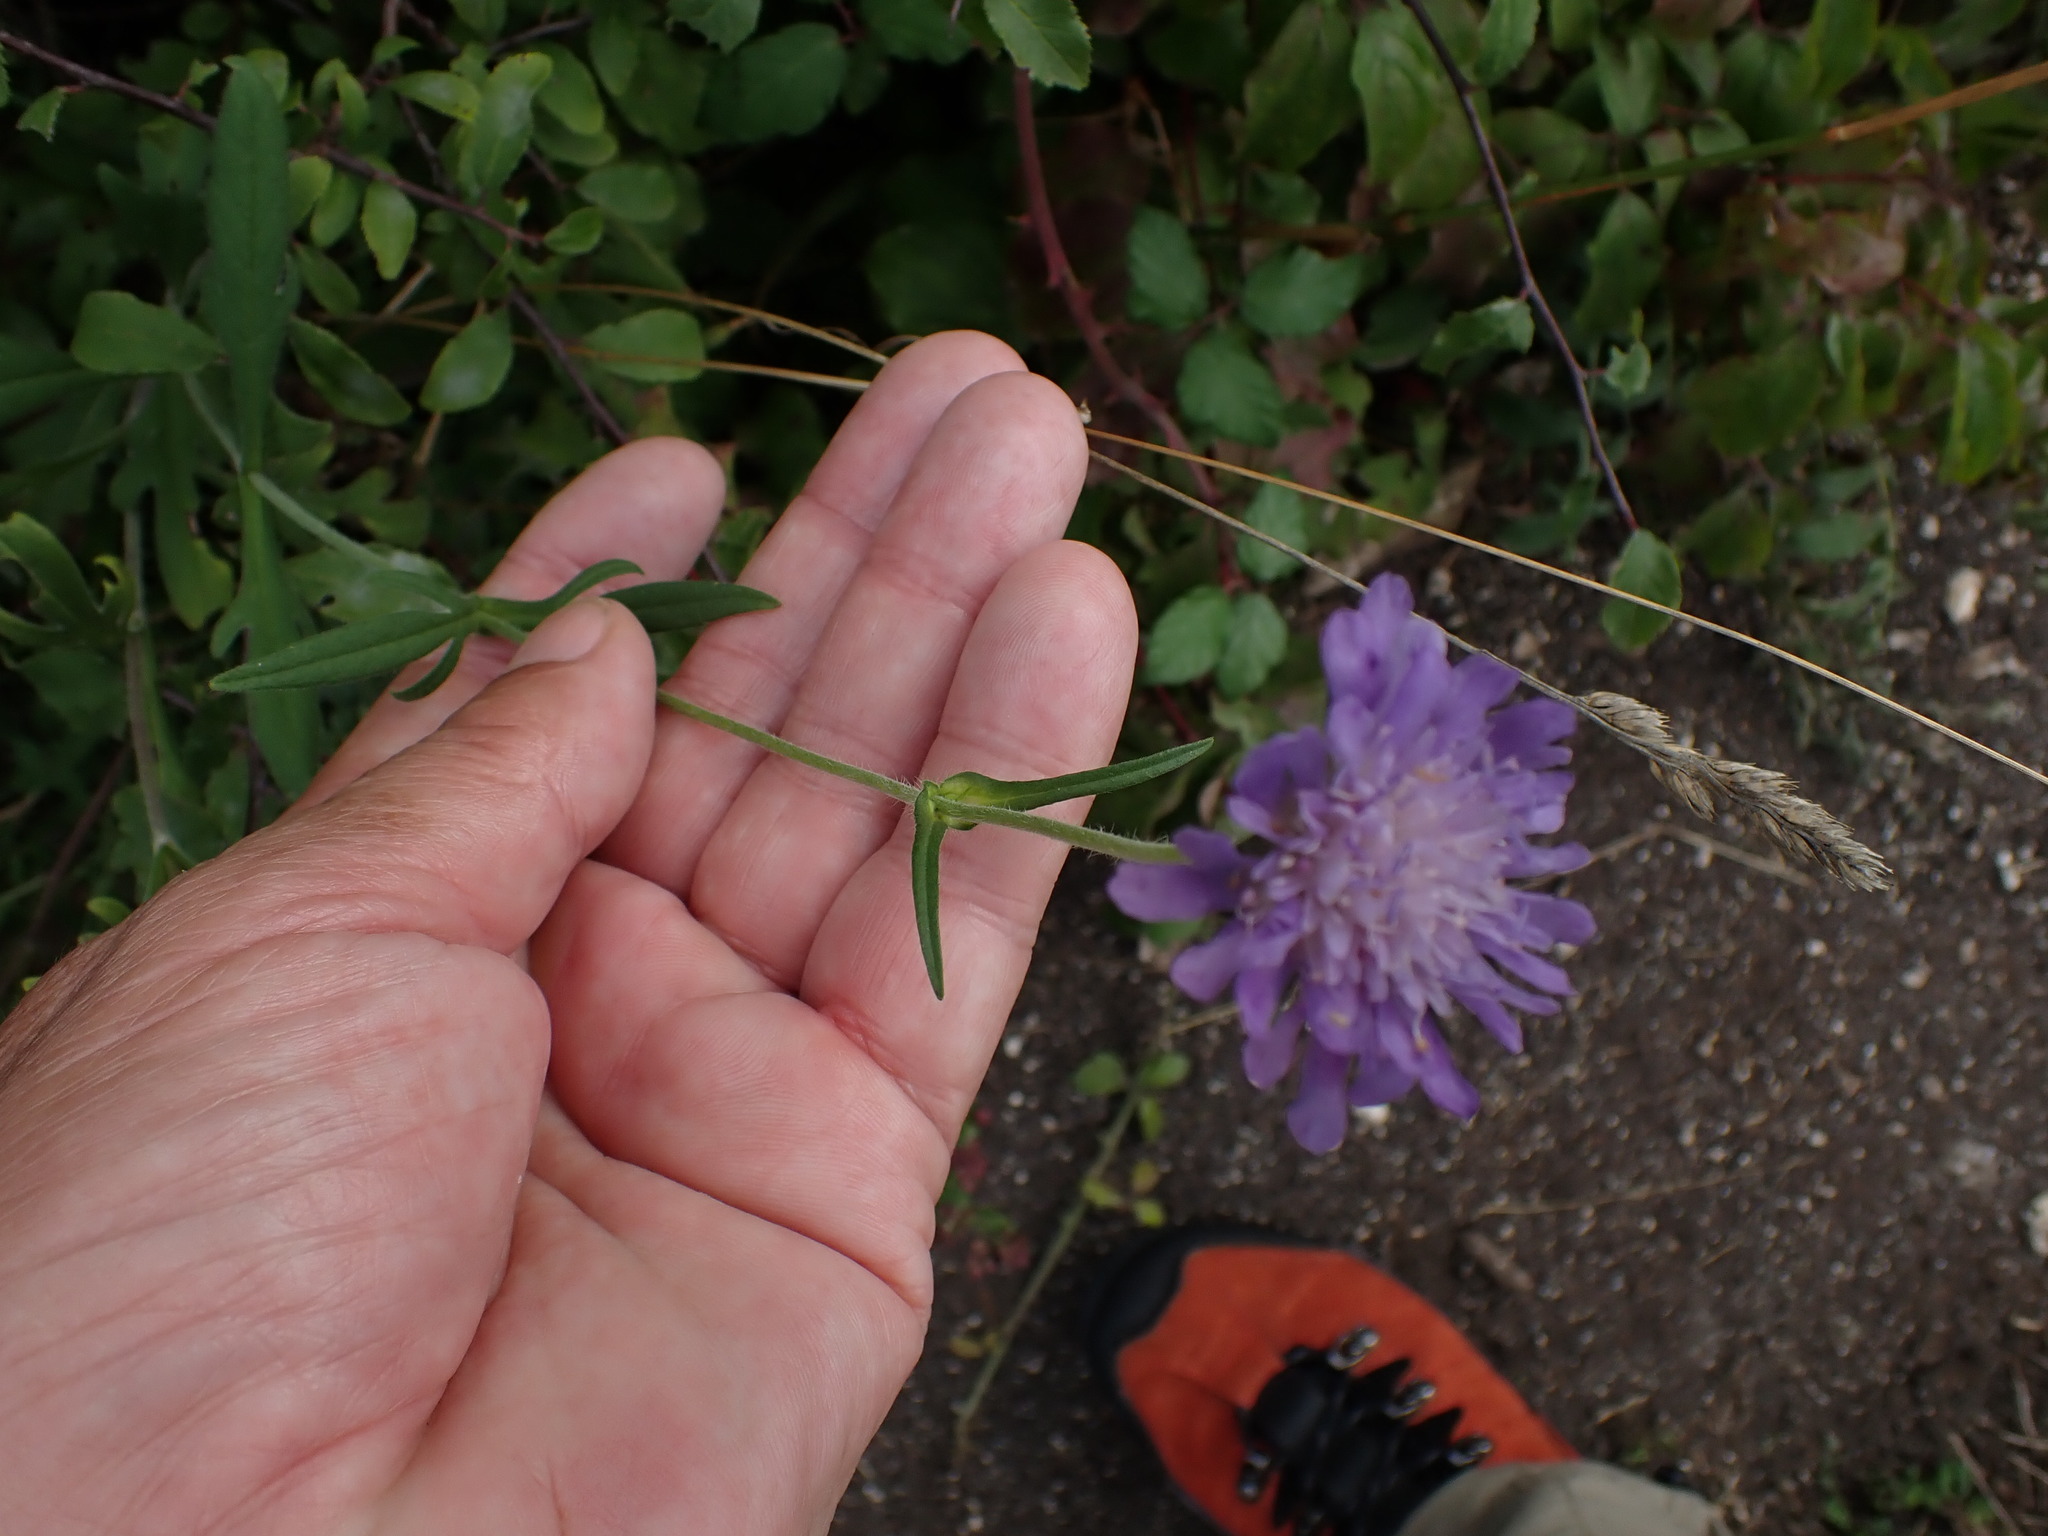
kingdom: Plantae
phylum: Tracheophyta
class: Magnoliopsida
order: Dipsacales
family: Caprifoliaceae
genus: Knautia
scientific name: Knautia arvensis
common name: Field scabiosa
